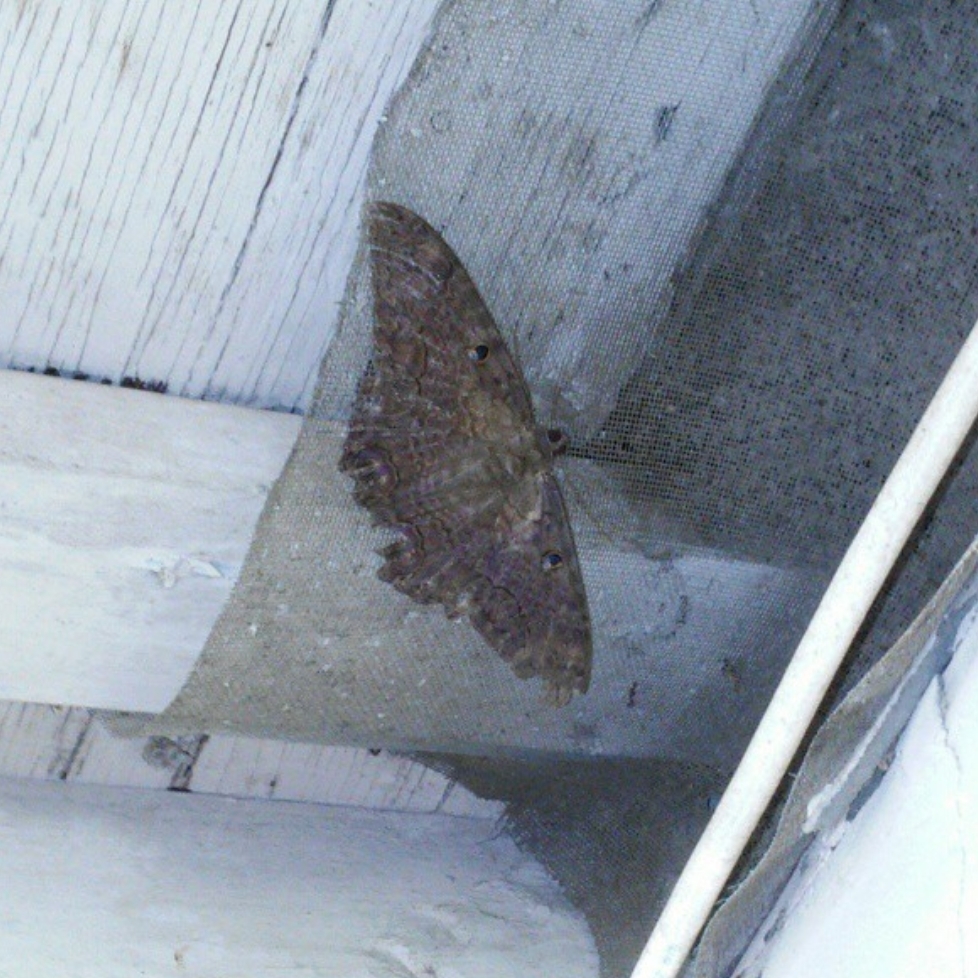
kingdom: Animalia
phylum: Arthropoda
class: Insecta
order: Lepidoptera
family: Erebidae
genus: Ascalapha
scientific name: Ascalapha odorata
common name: Black witch
